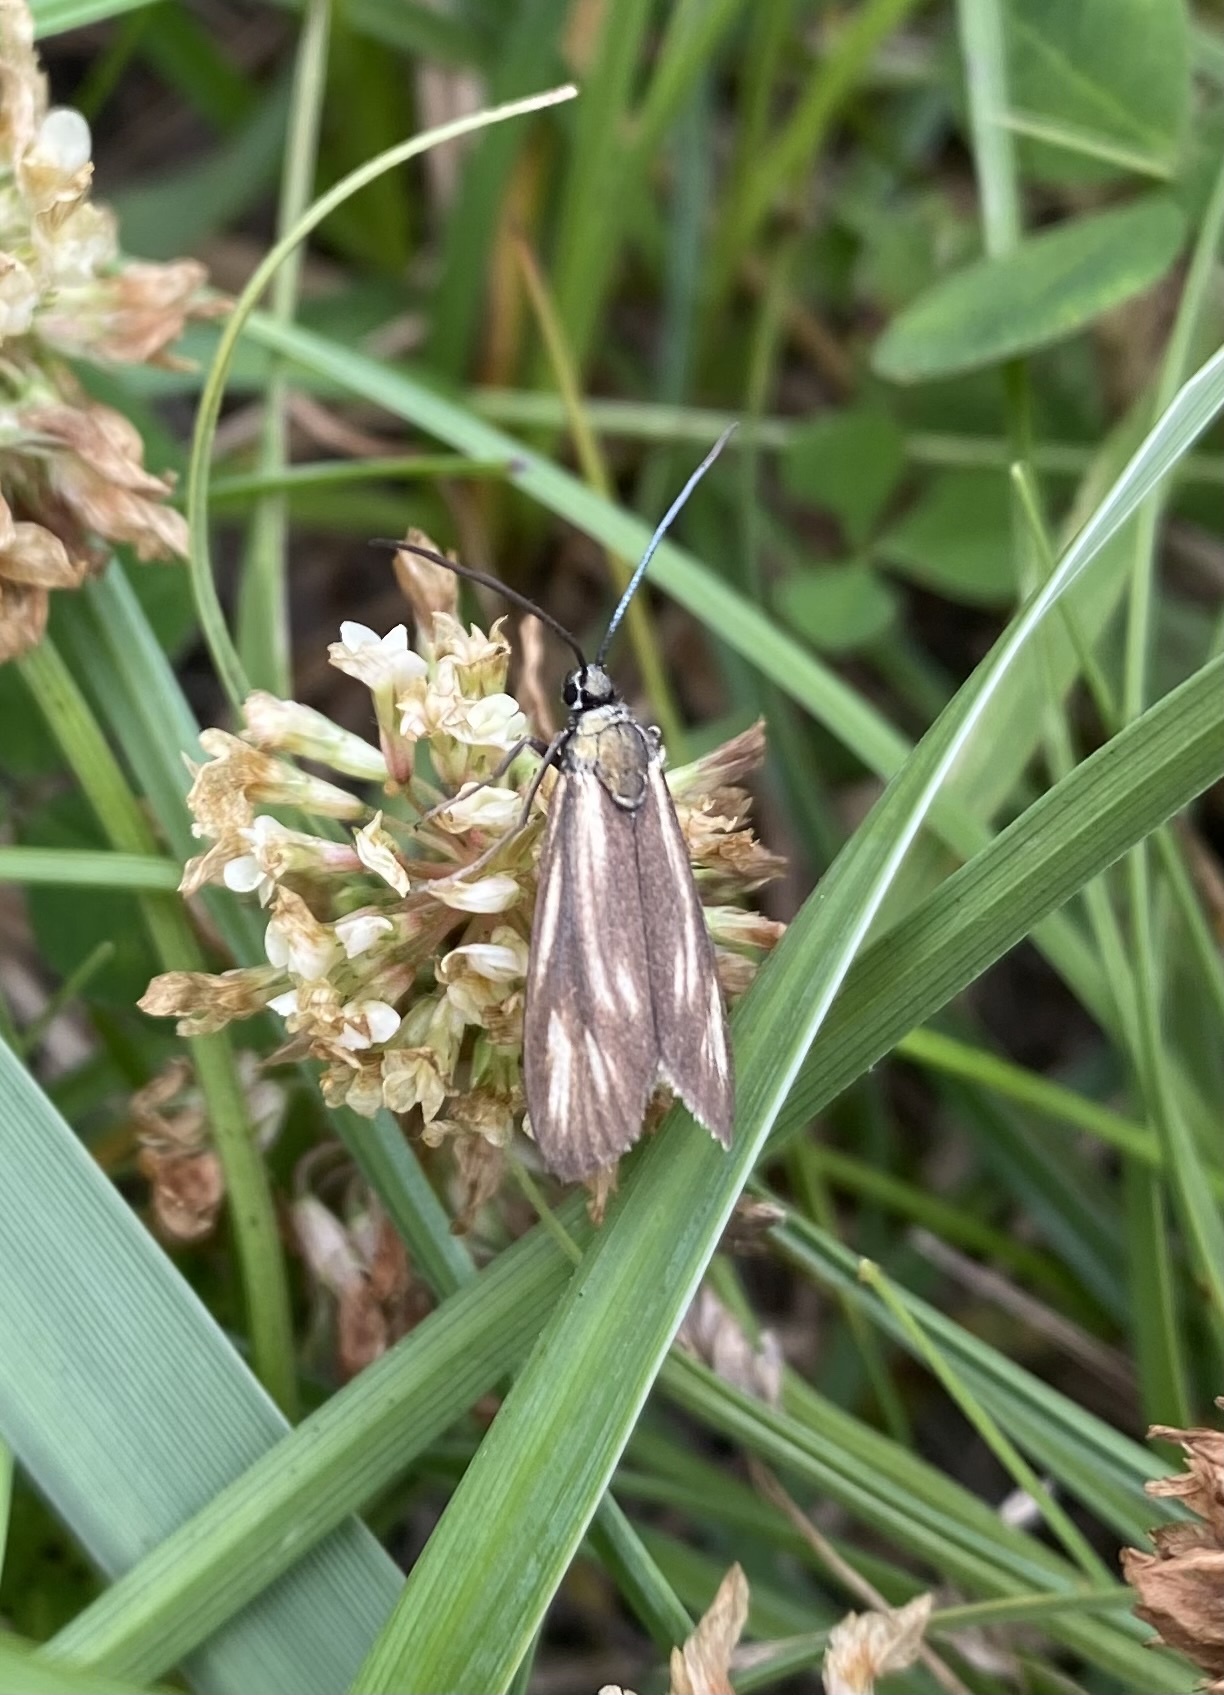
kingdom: Animalia
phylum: Arthropoda
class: Insecta
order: Lepidoptera
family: Zygaenidae
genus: Artona
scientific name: Artona
